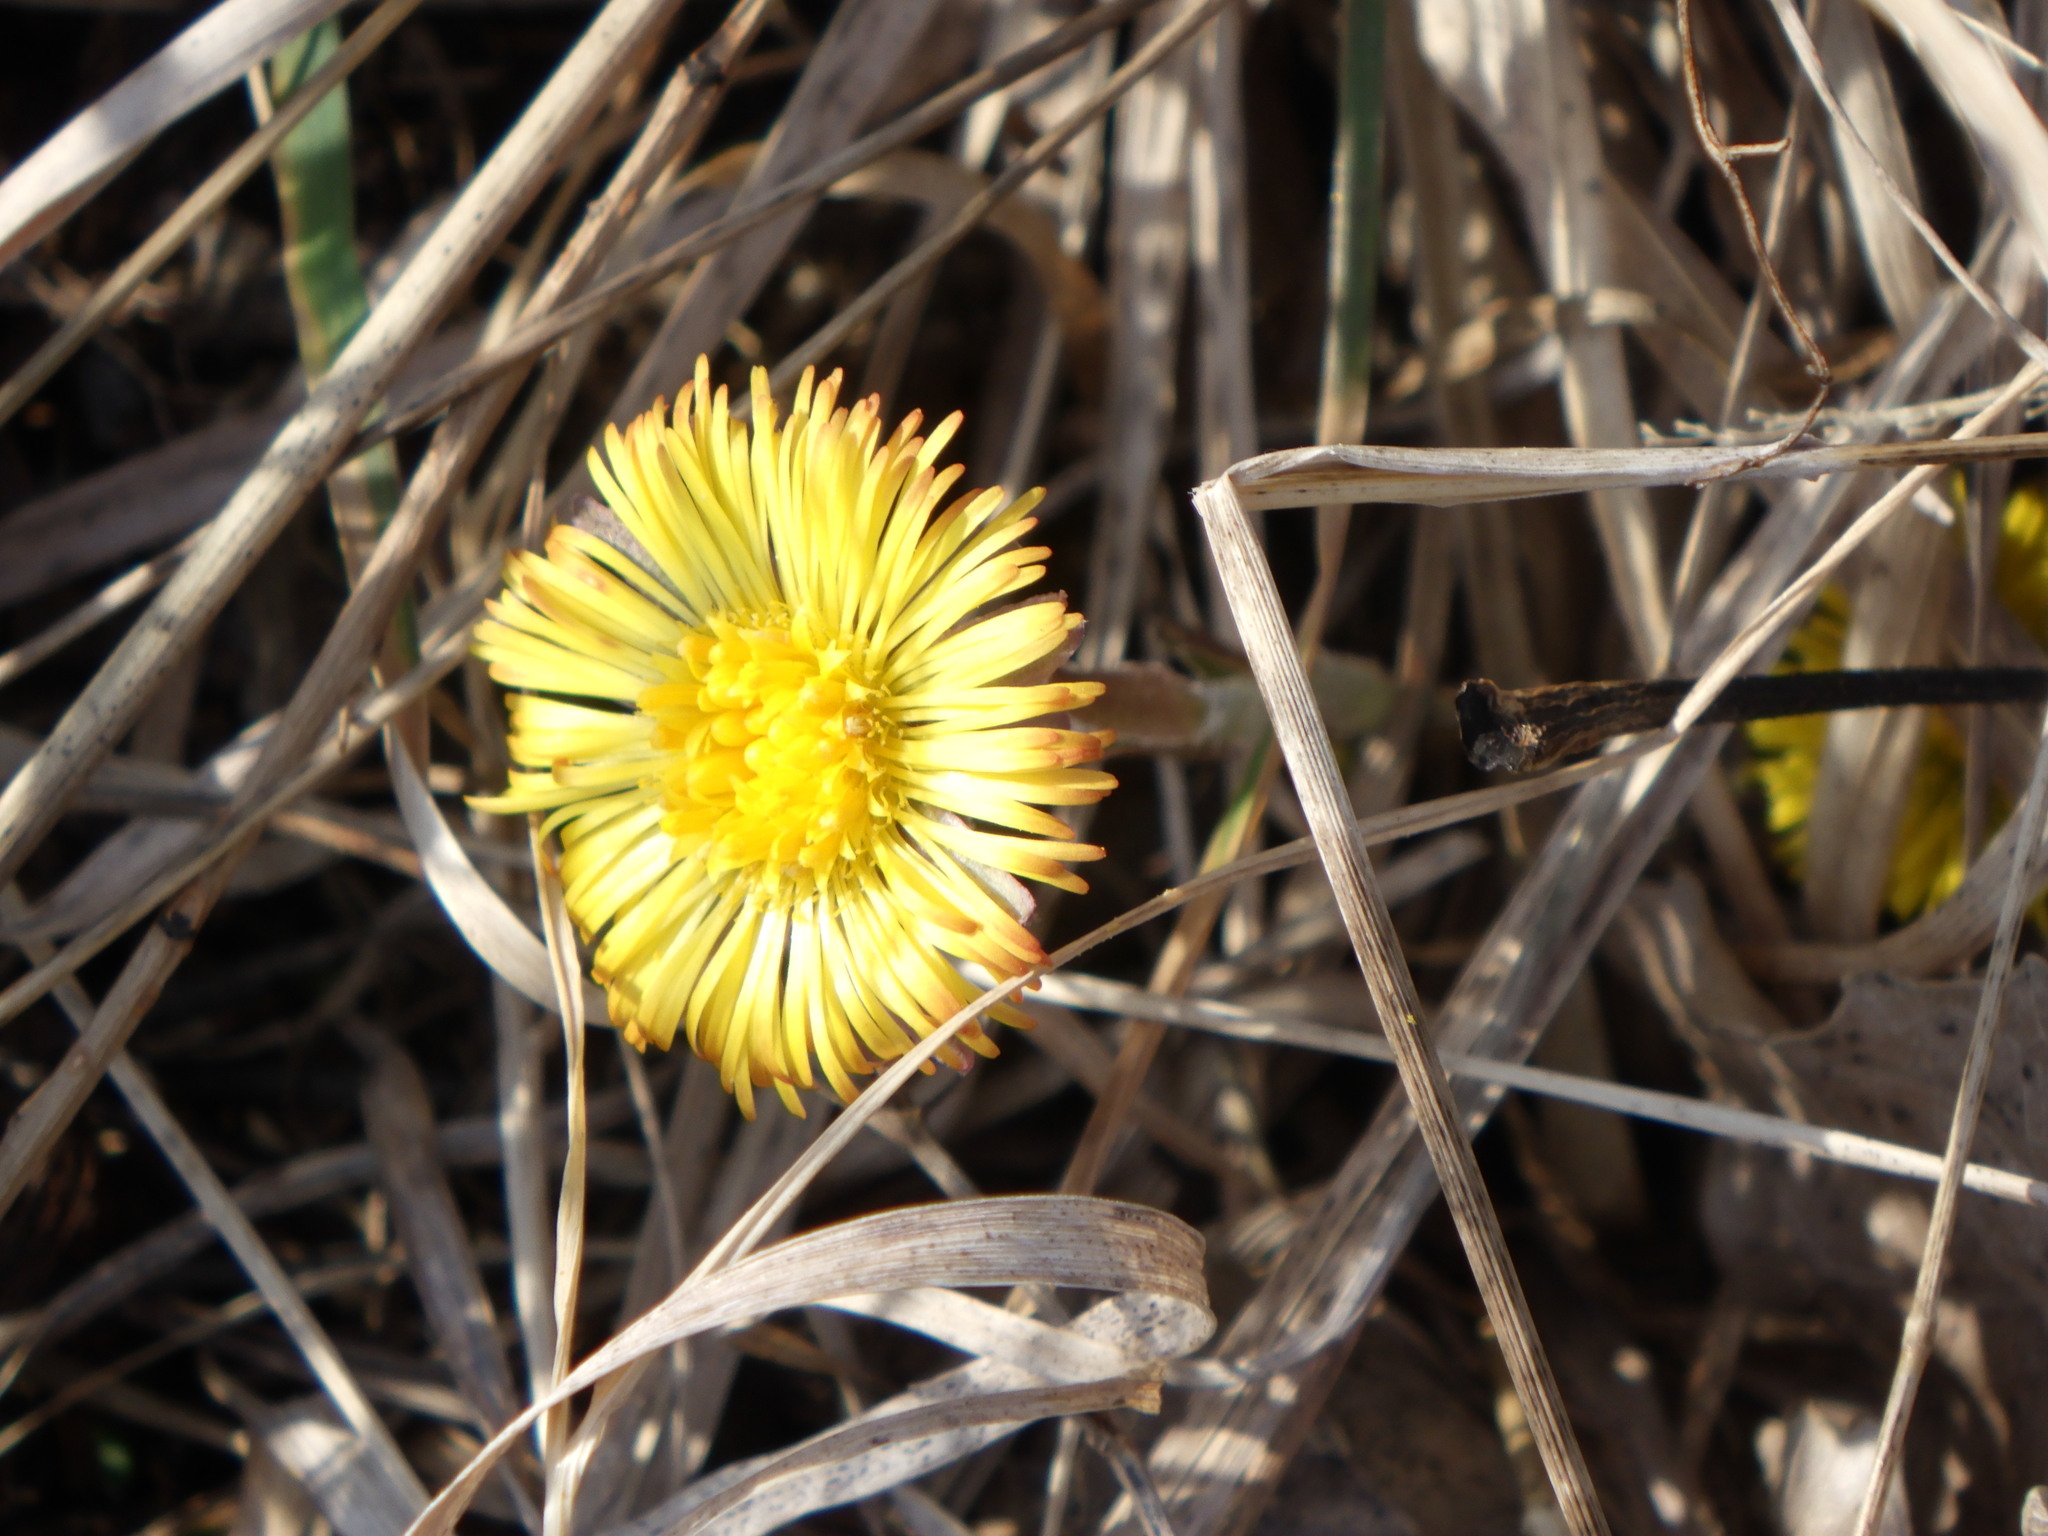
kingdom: Plantae
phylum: Tracheophyta
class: Magnoliopsida
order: Asterales
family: Asteraceae
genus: Tussilago
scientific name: Tussilago farfara
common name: Coltsfoot
